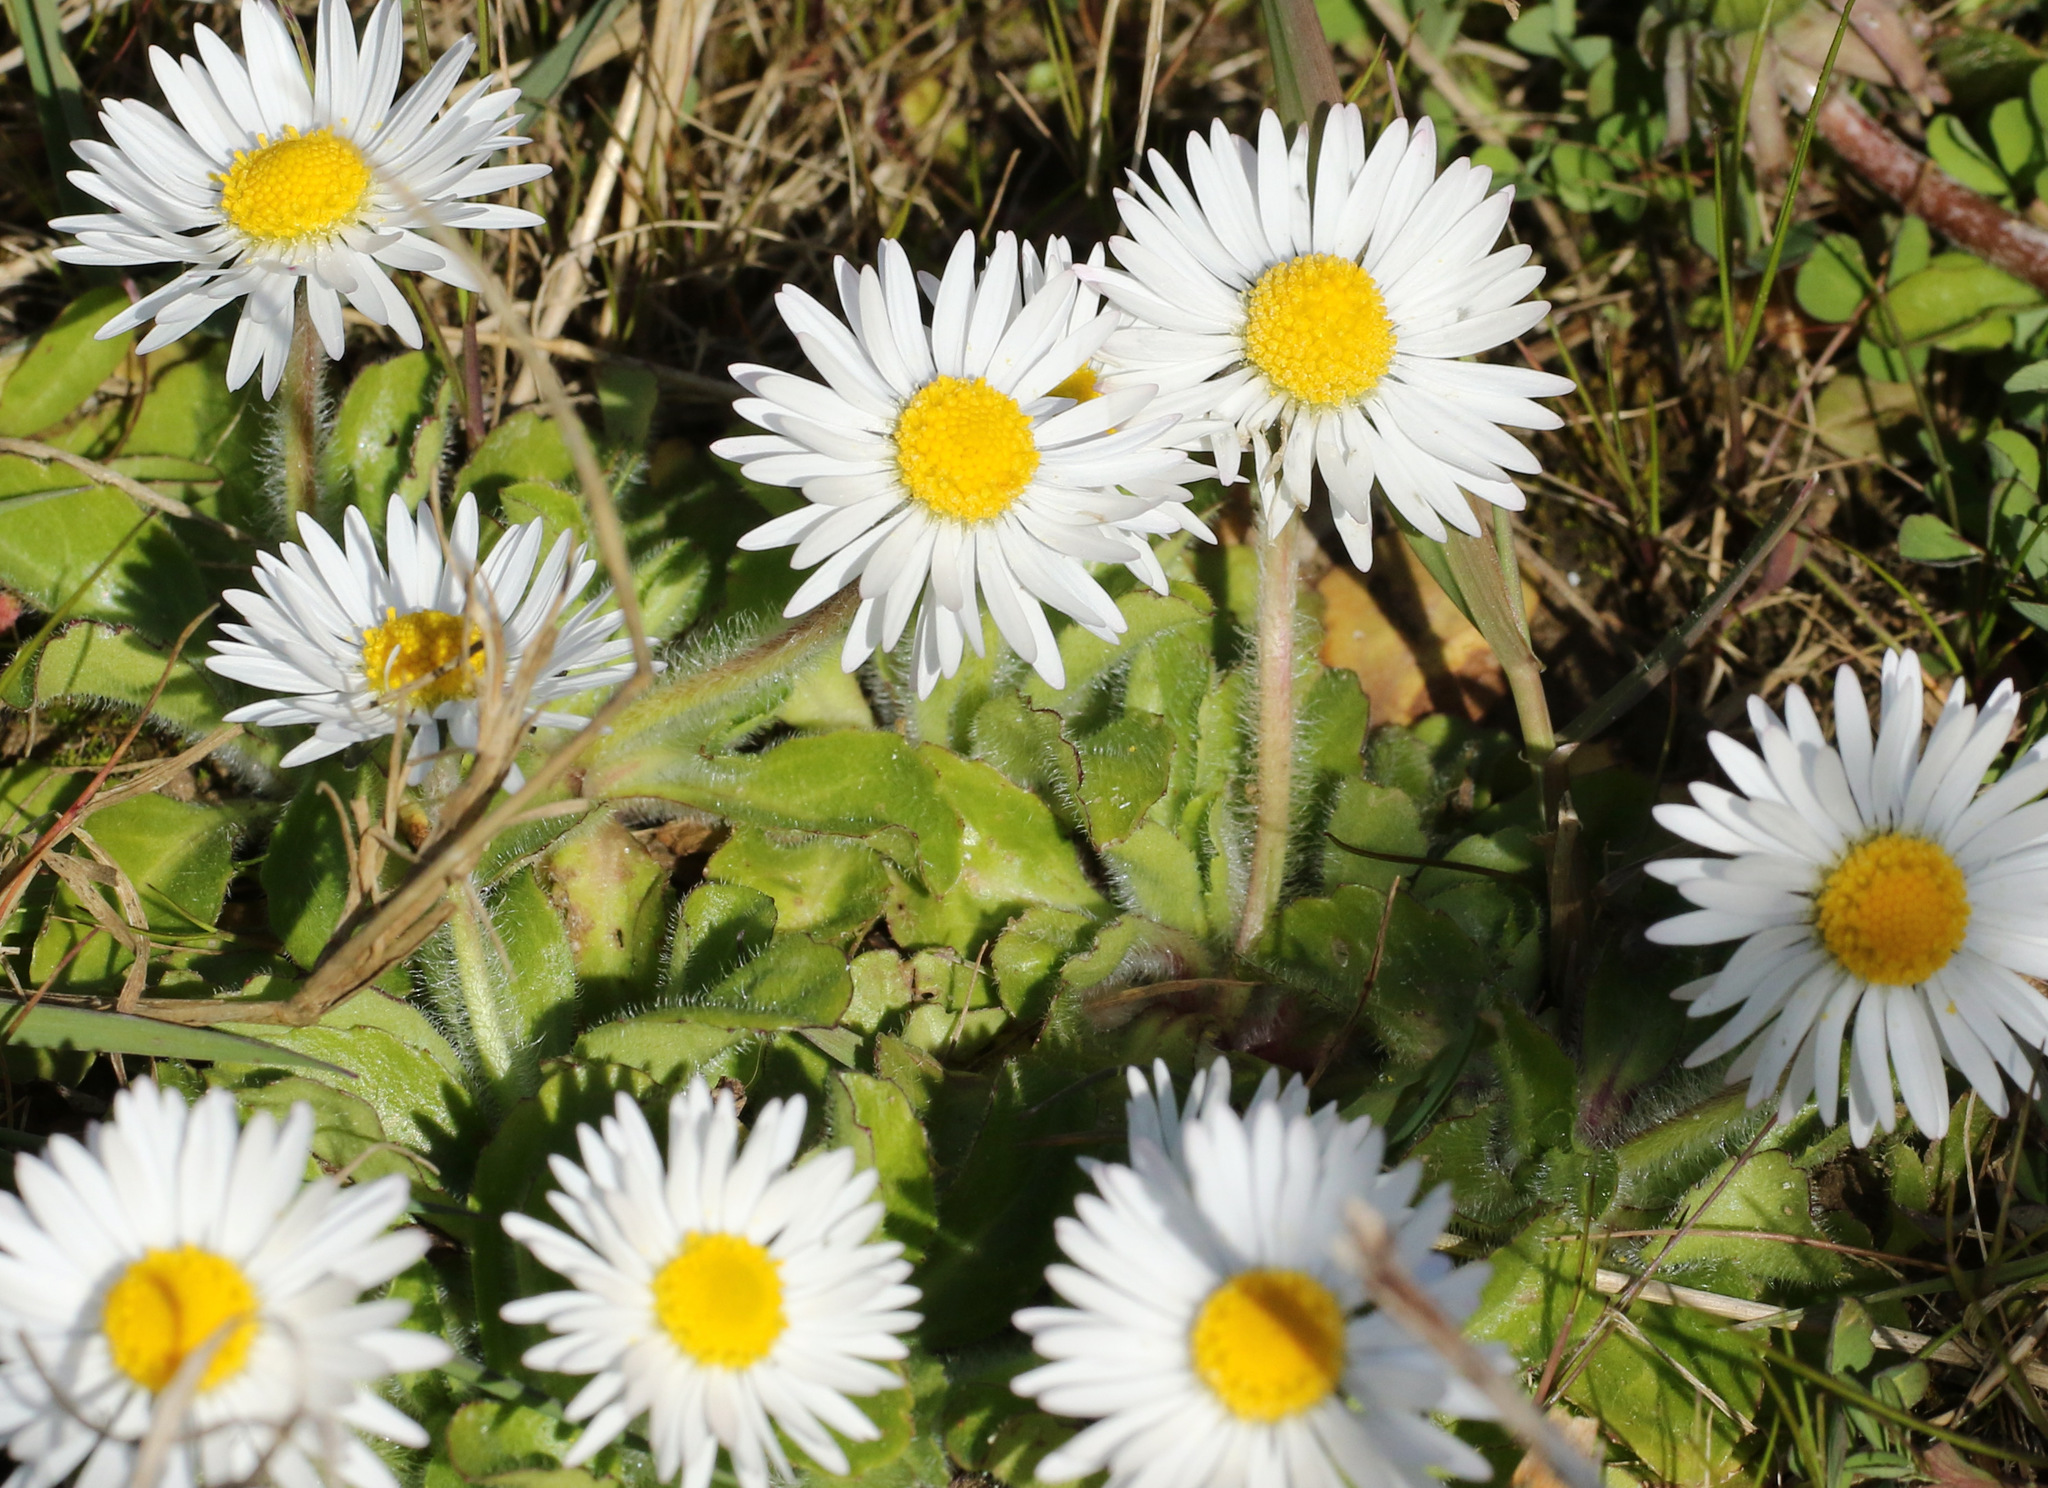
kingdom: Plantae
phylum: Tracheophyta
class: Magnoliopsida
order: Asterales
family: Asteraceae
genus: Bellis
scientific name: Bellis perennis
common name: Lawndaisy
